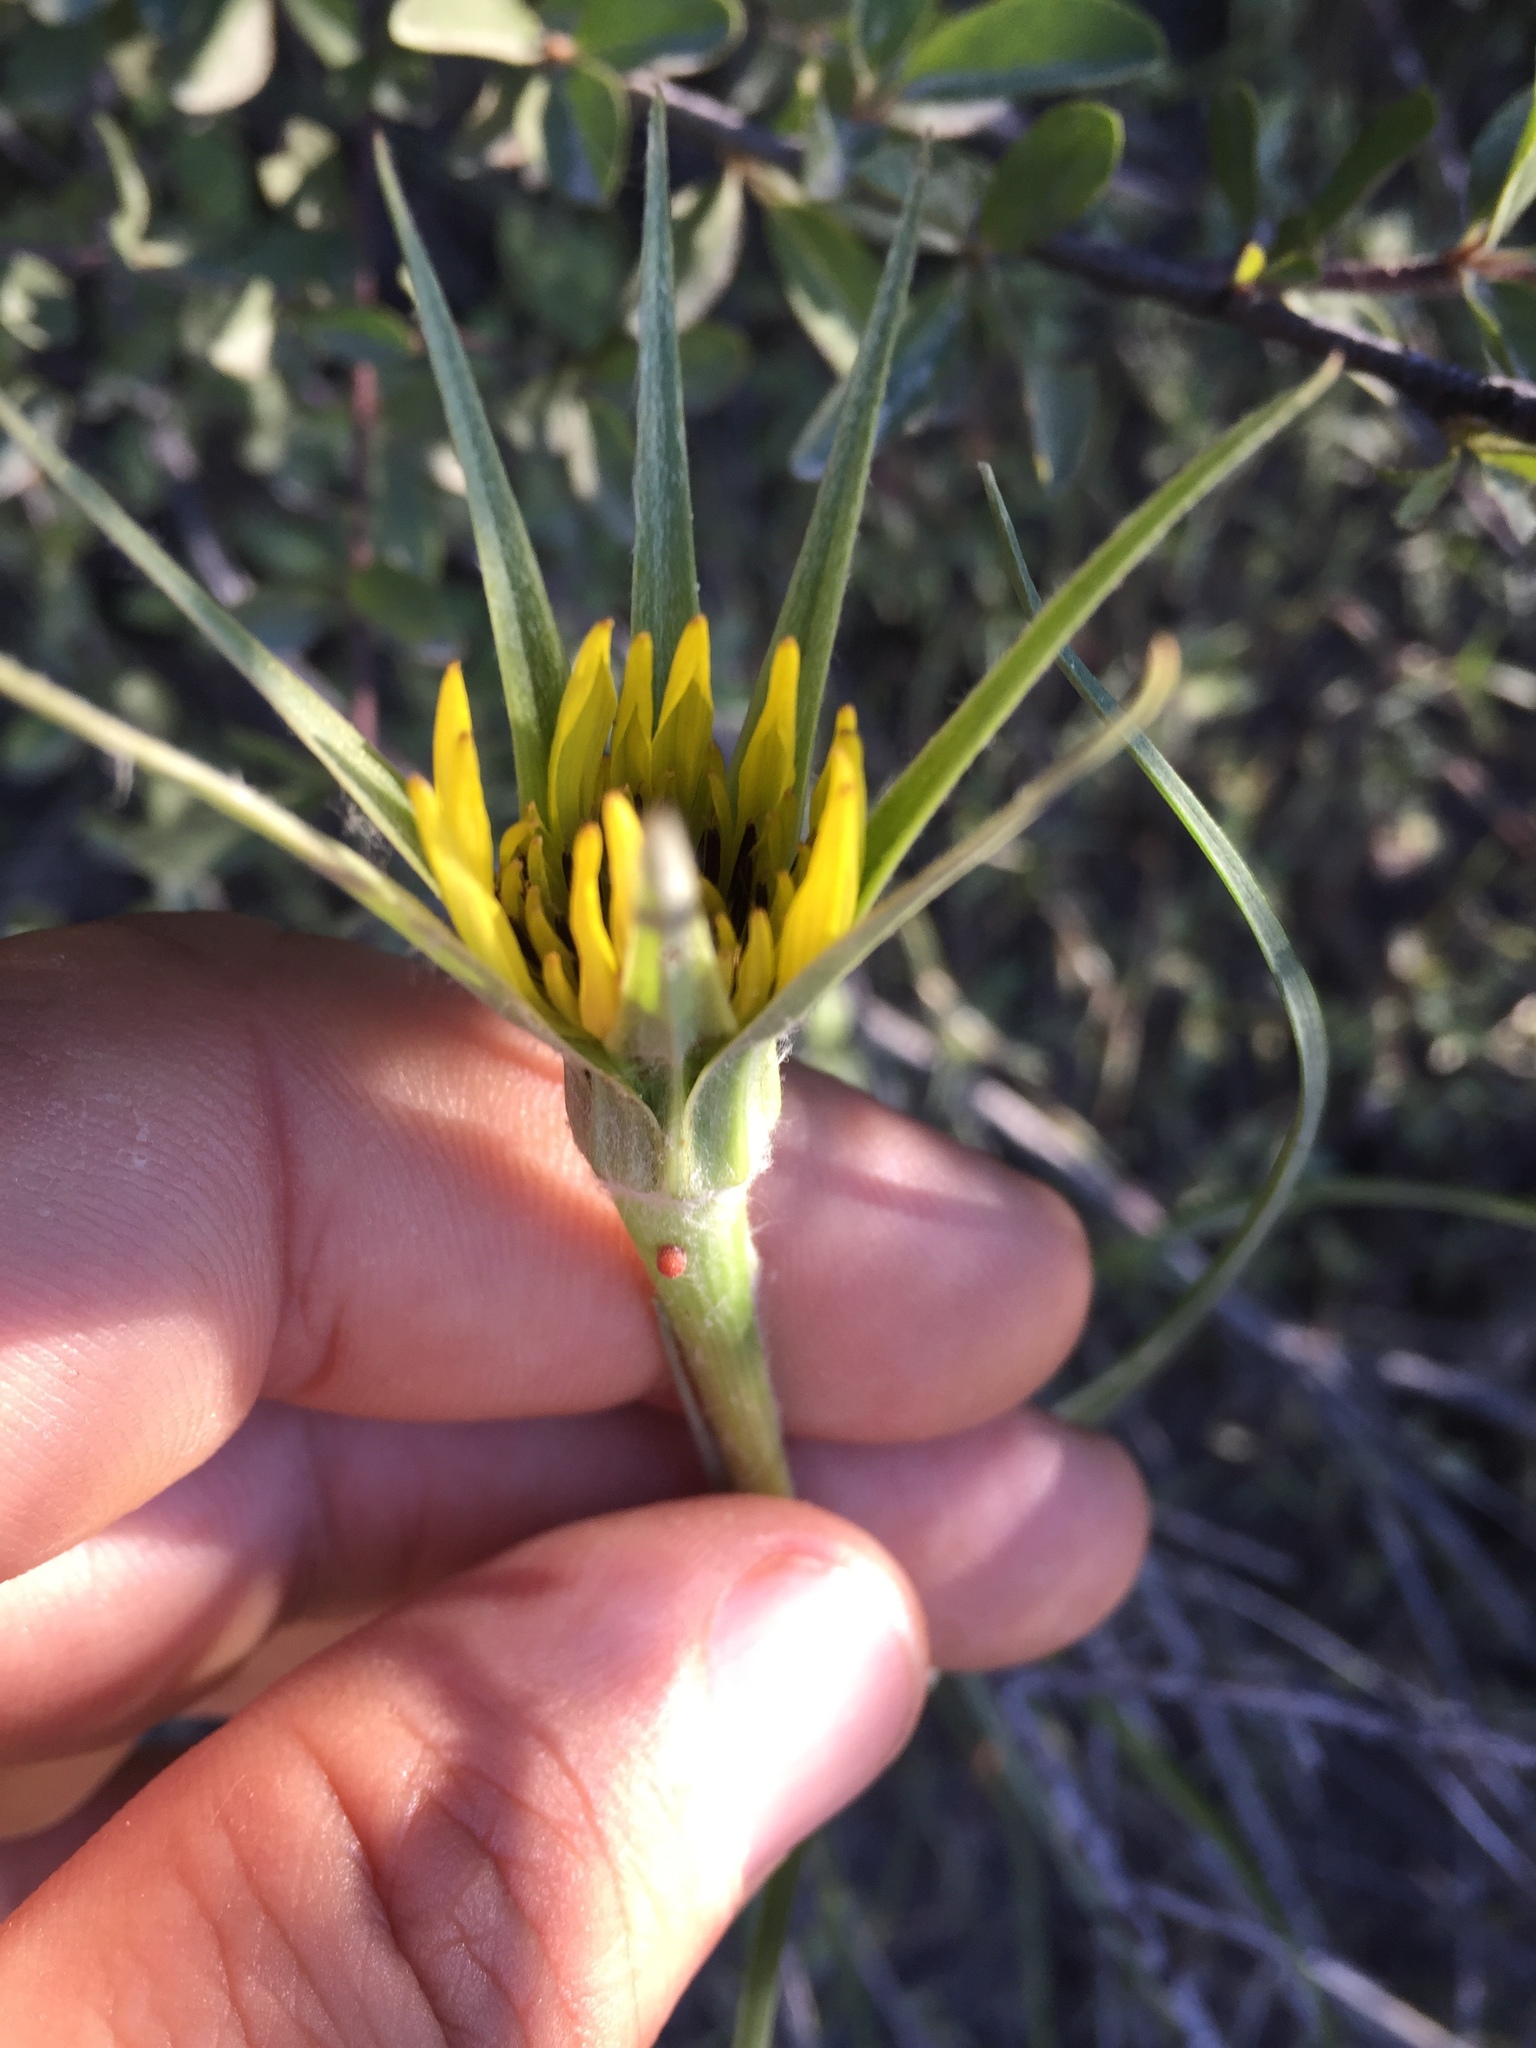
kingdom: Plantae
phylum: Tracheophyta
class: Magnoliopsida
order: Asterales
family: Asteraceae
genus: Tragopogon
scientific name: Tragopogon dubius
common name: Yellow salsify
